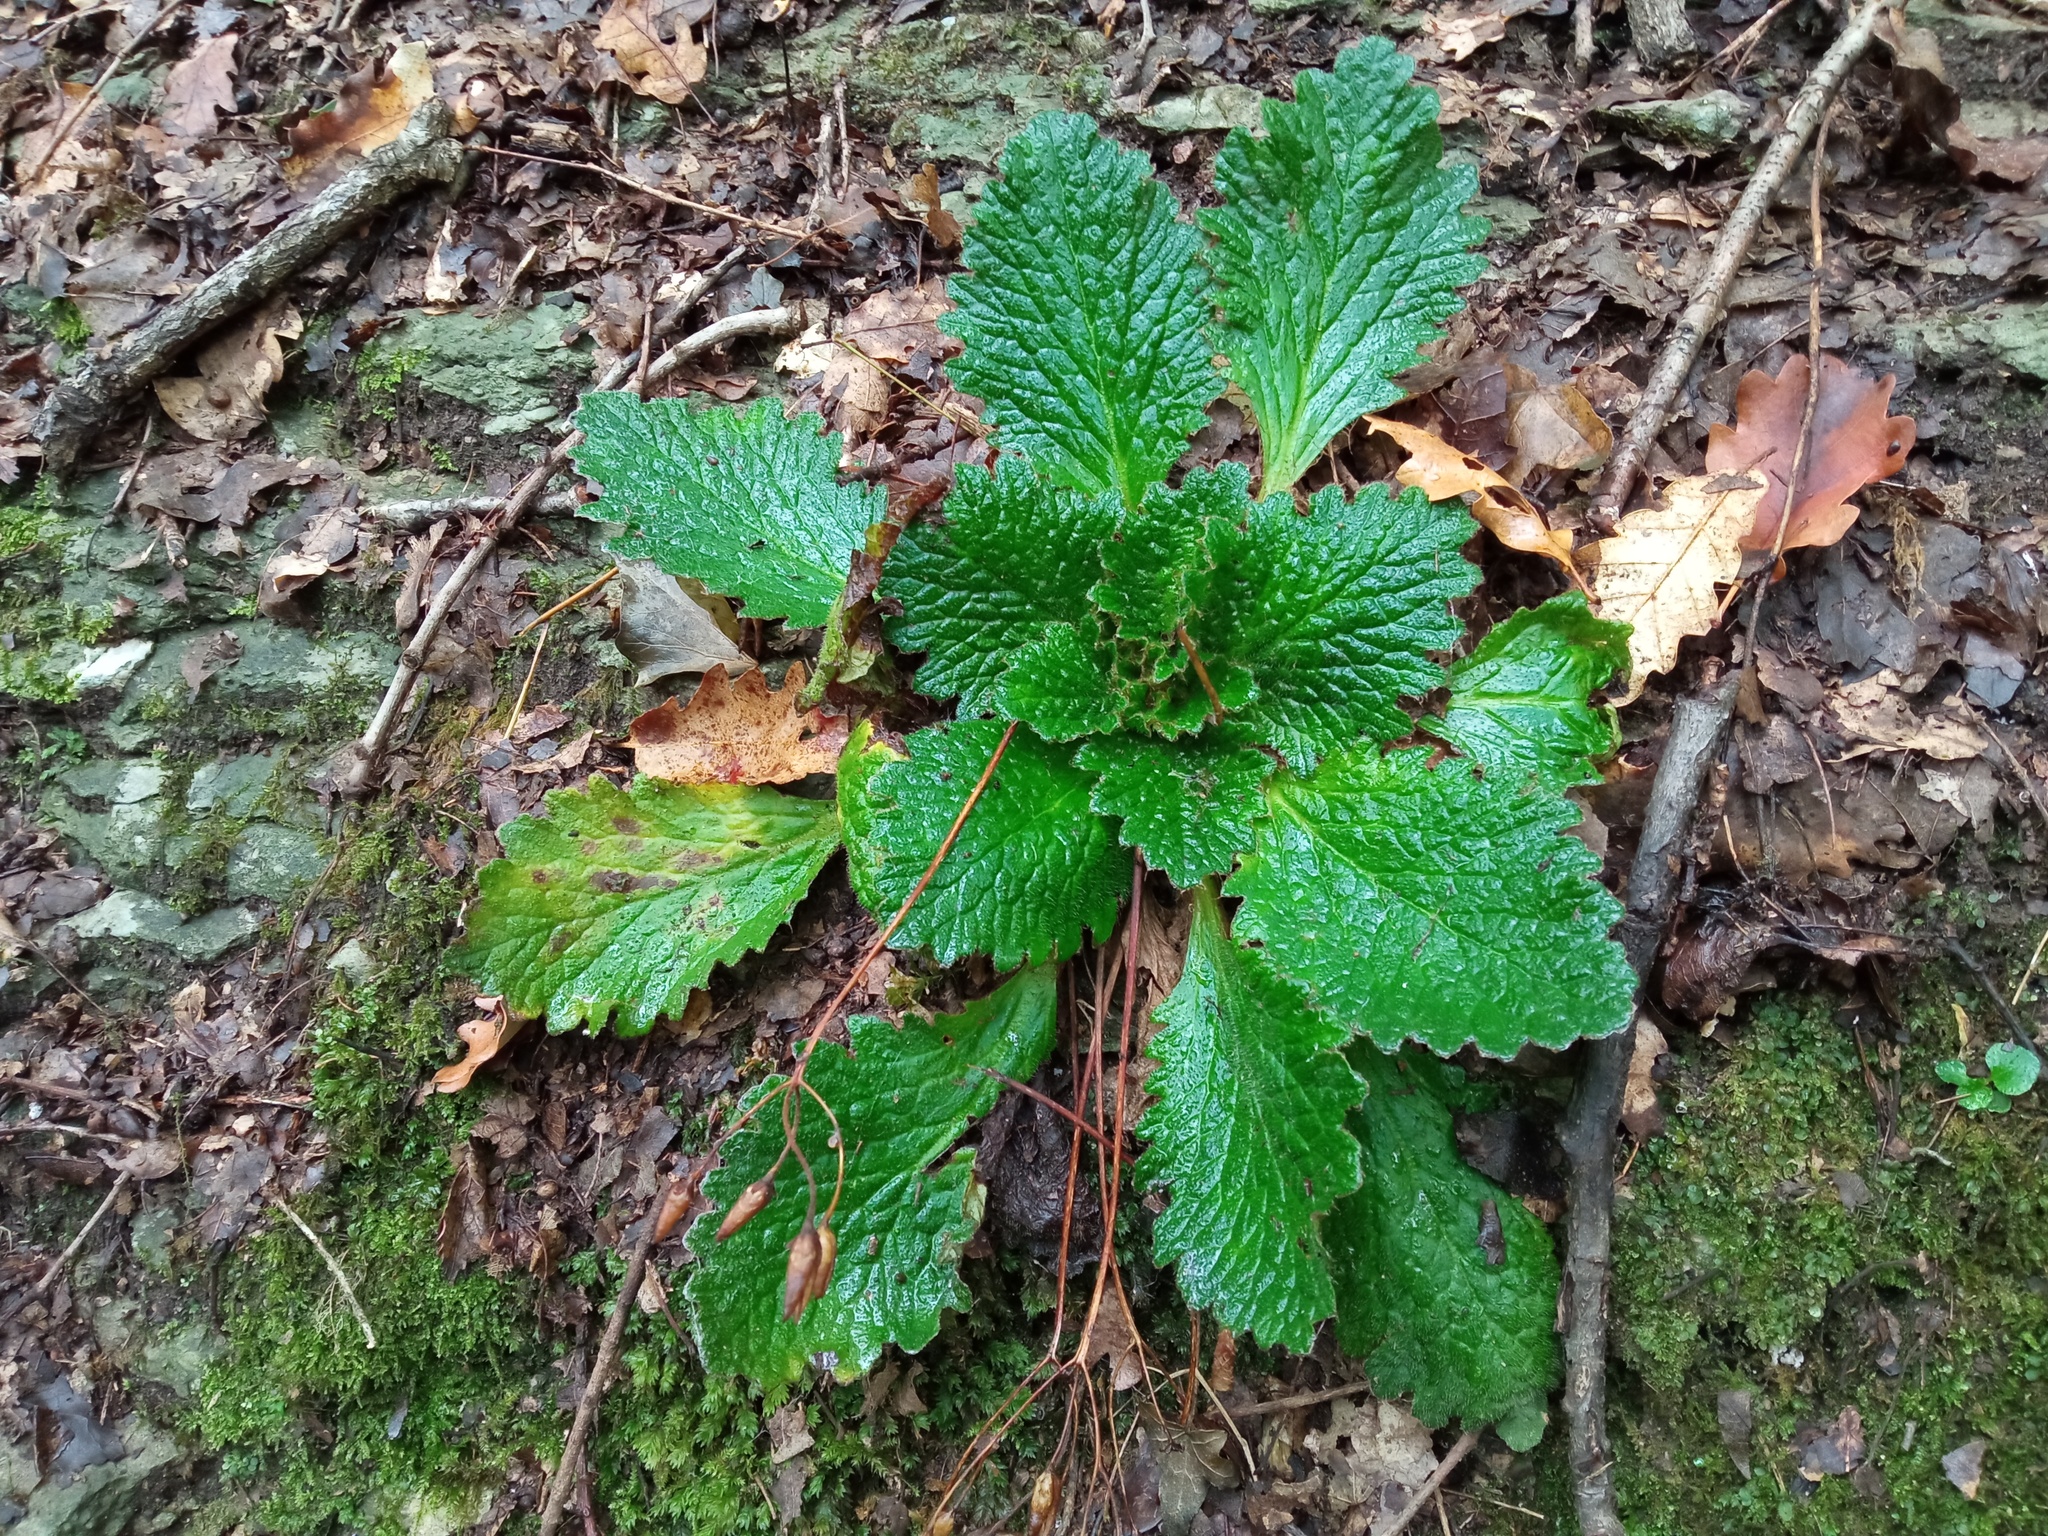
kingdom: Plantae
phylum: Tracheophyta
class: Magnoliopsida
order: Lamiales
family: Gesneriaceae
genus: Ramonda
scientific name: Ramonda myconi
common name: Pyrenean-violet
